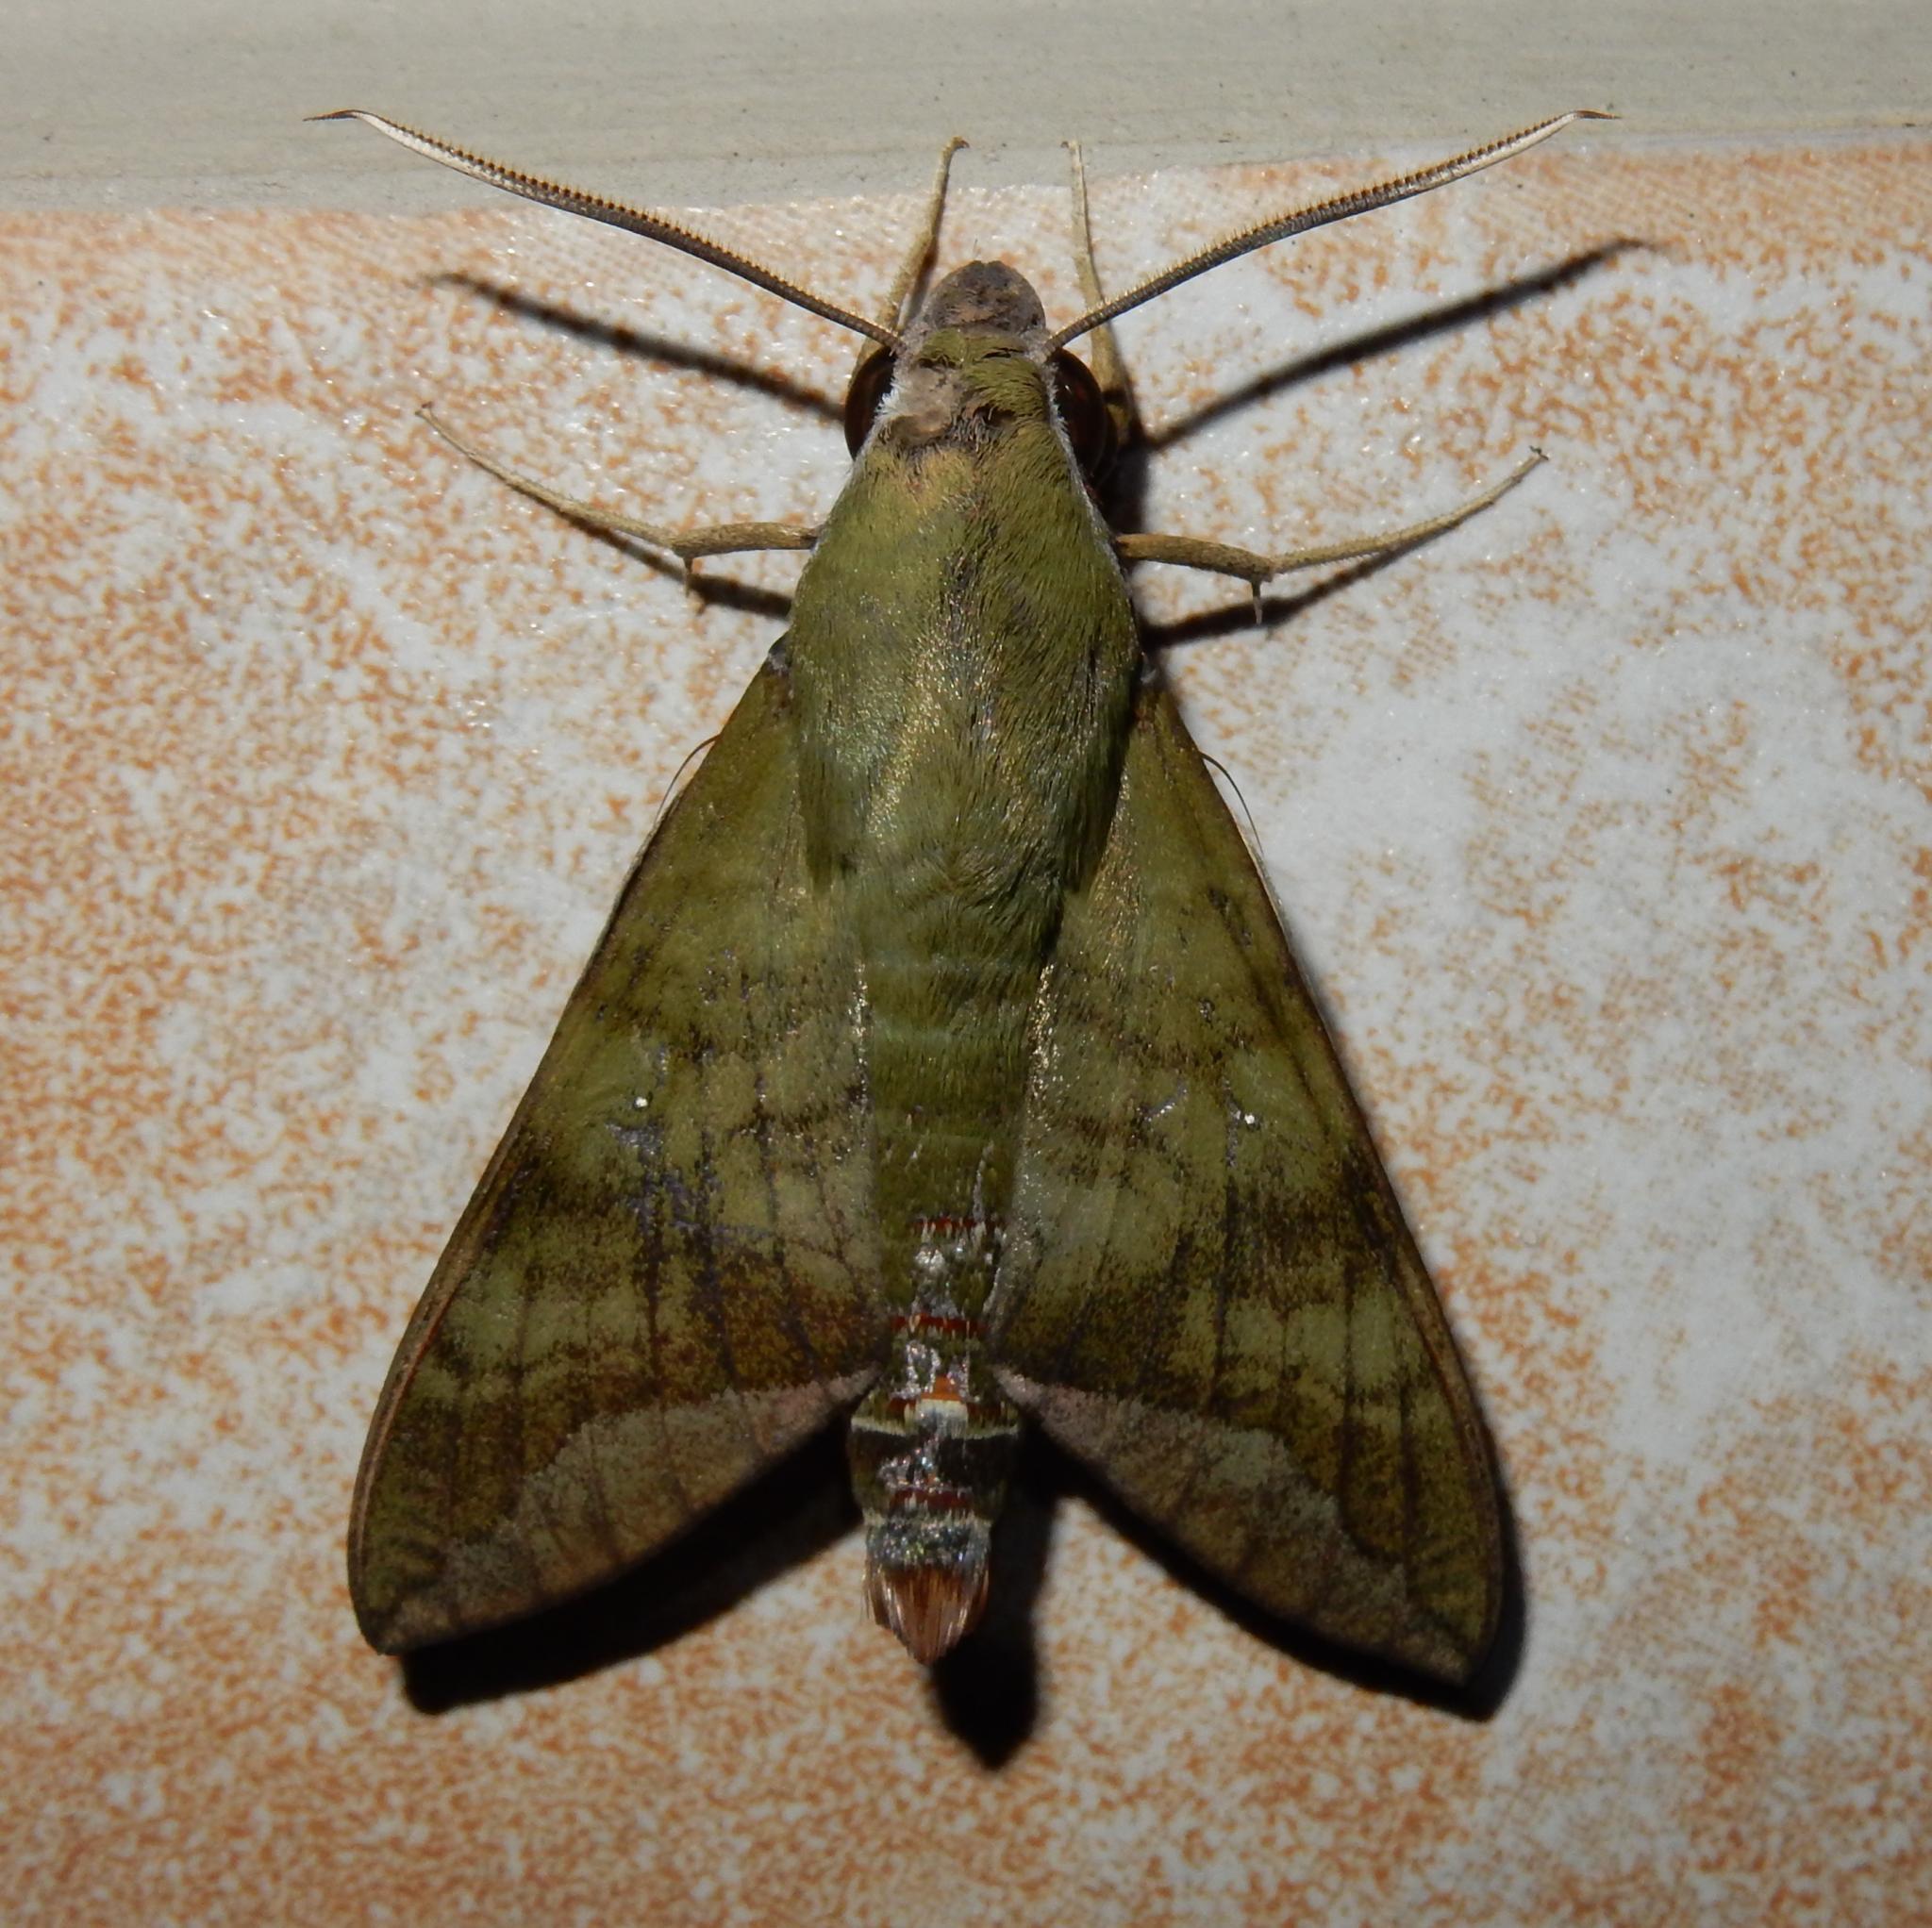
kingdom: Animalia
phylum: Arthropoda
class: Insecta
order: Lepidoptera
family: Sphingidae
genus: Nephele
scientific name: Nephele comma
